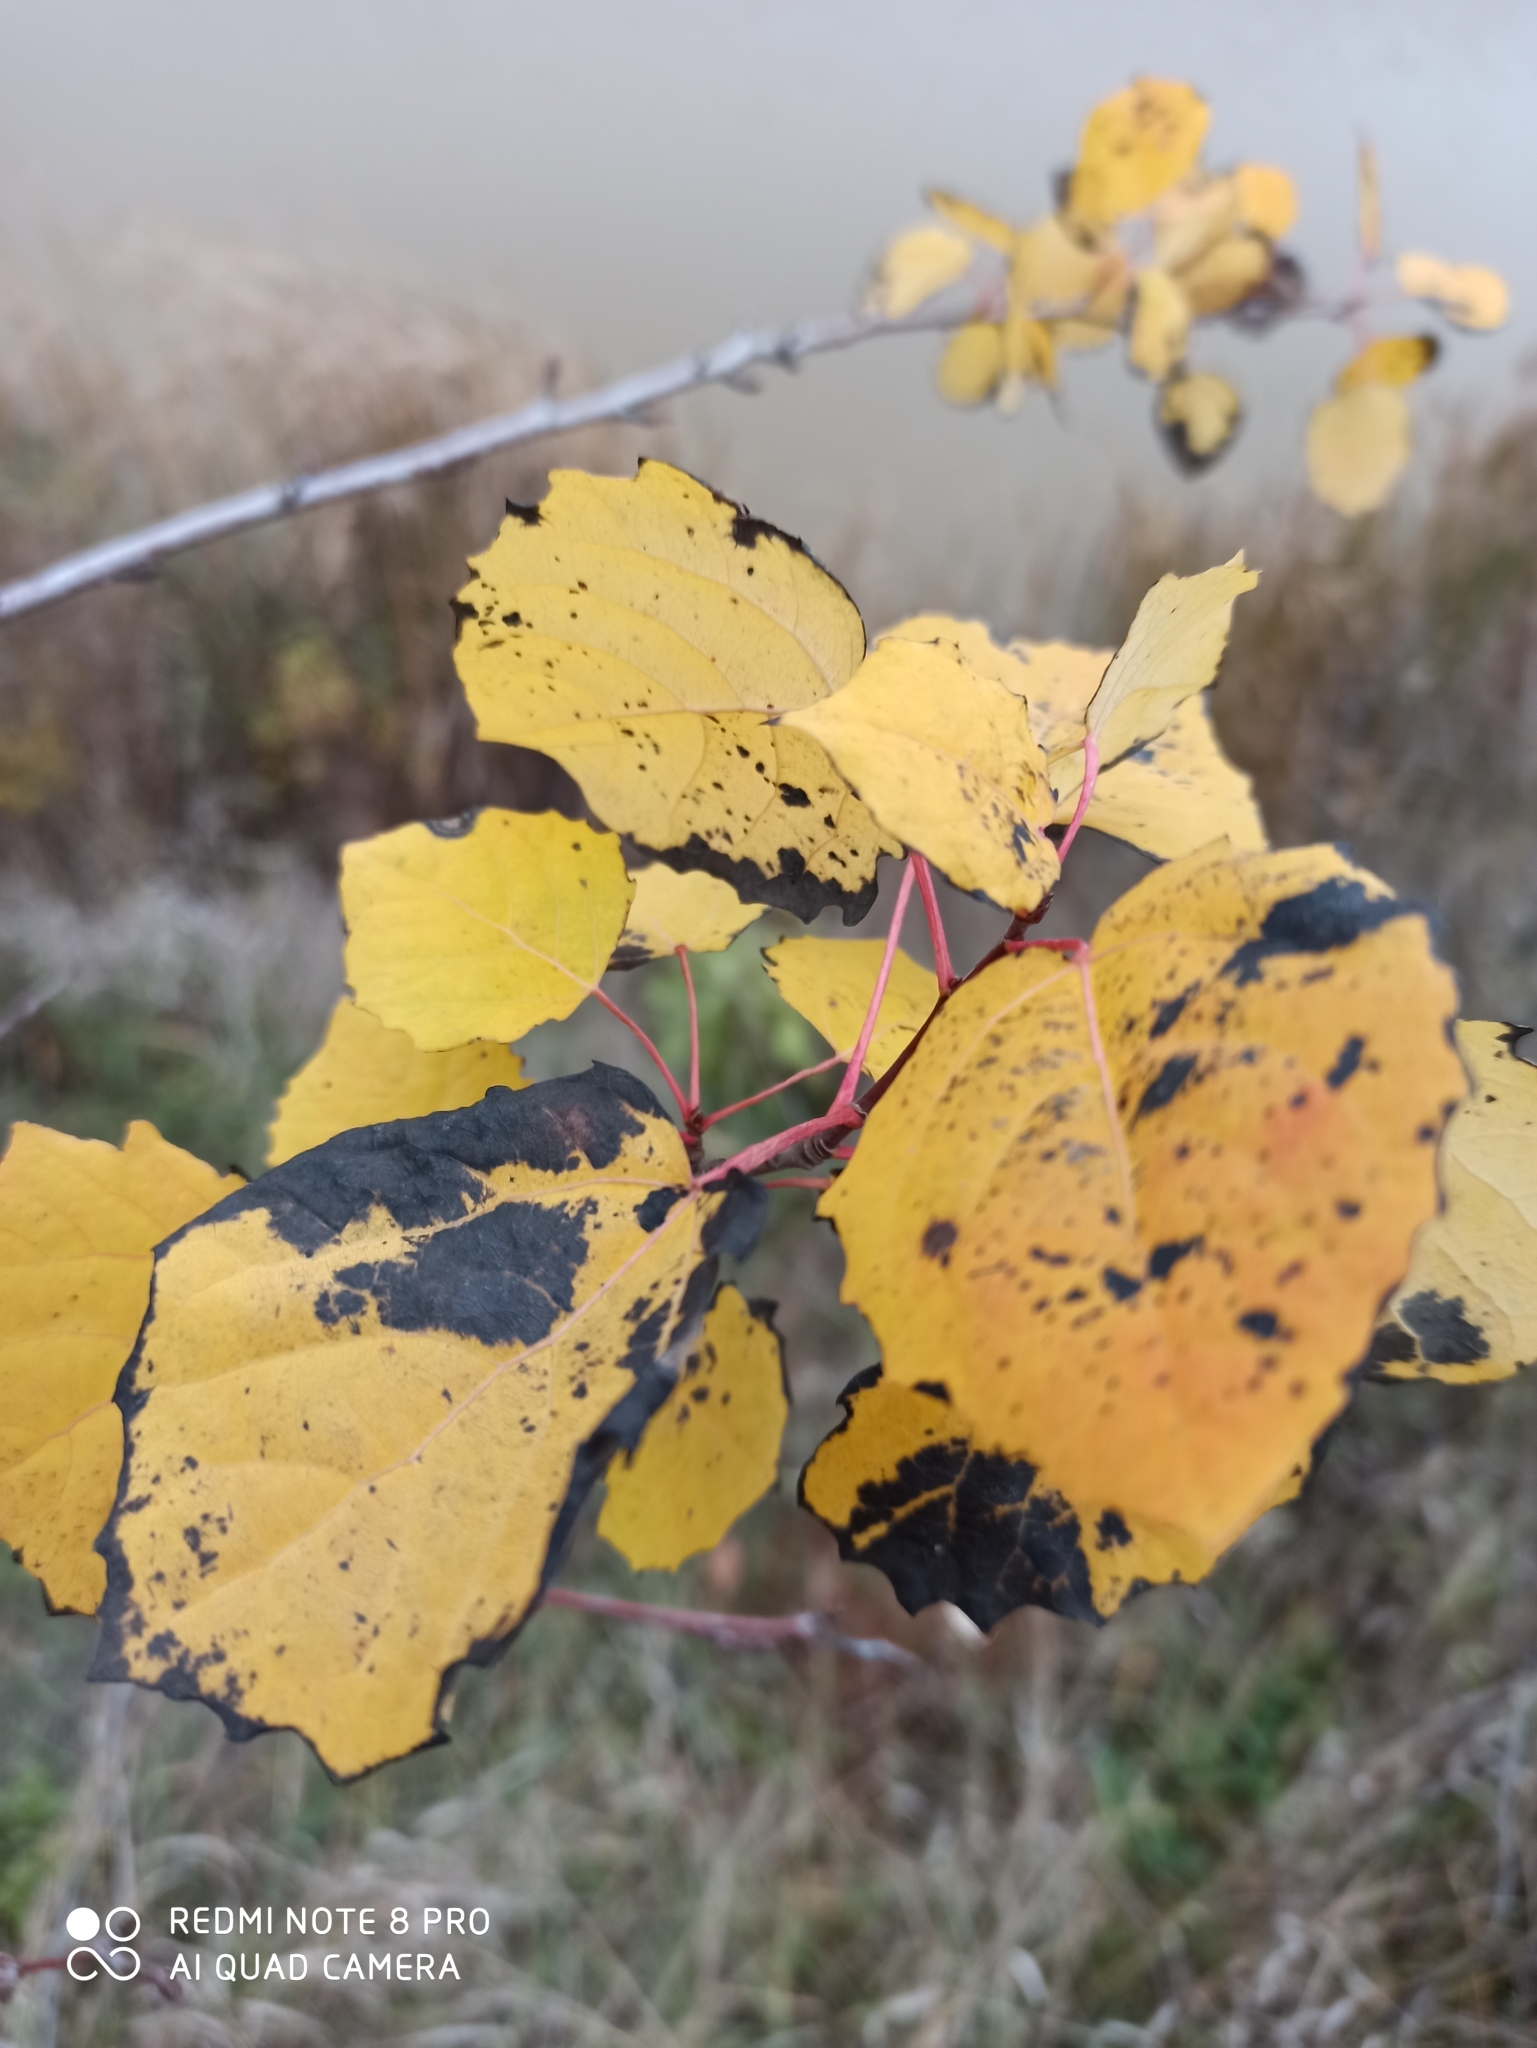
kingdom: Plantae
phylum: Tracheophyta
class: Magnoliopsida
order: Malpighiales
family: Salicaceae
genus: Populus
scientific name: Populus tremula
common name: European aspen
